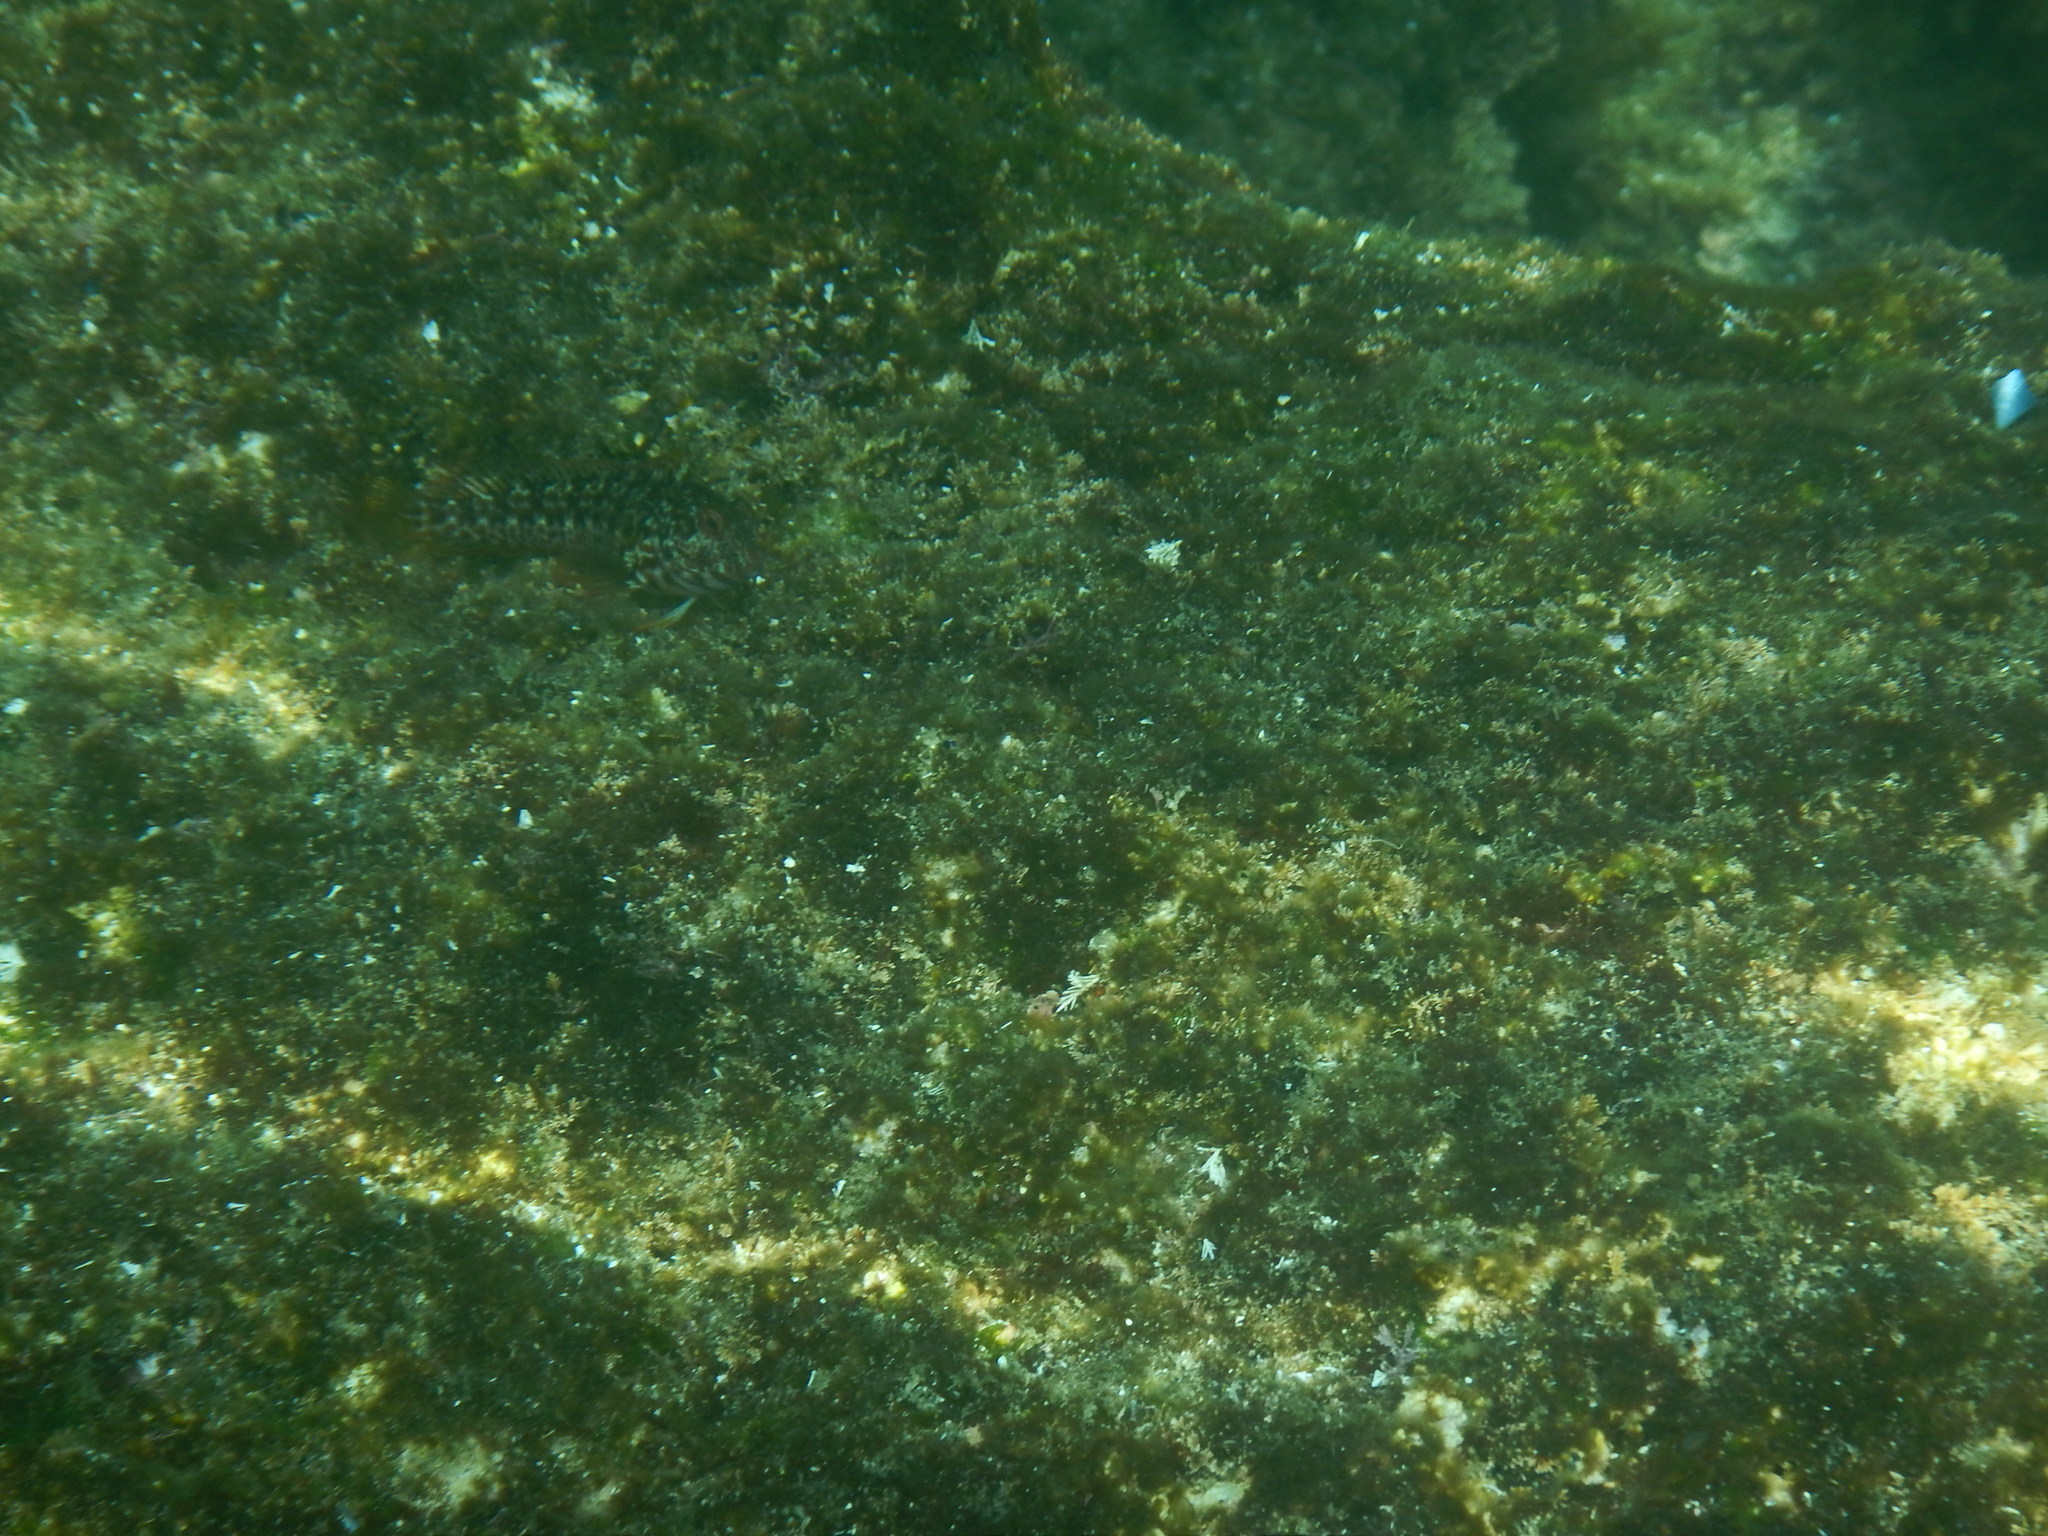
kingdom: Animalia
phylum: Chordata
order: Perciformes
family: Blenniidae
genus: Parablennius
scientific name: Parablennius pilicornis
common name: Ringneck blenny
